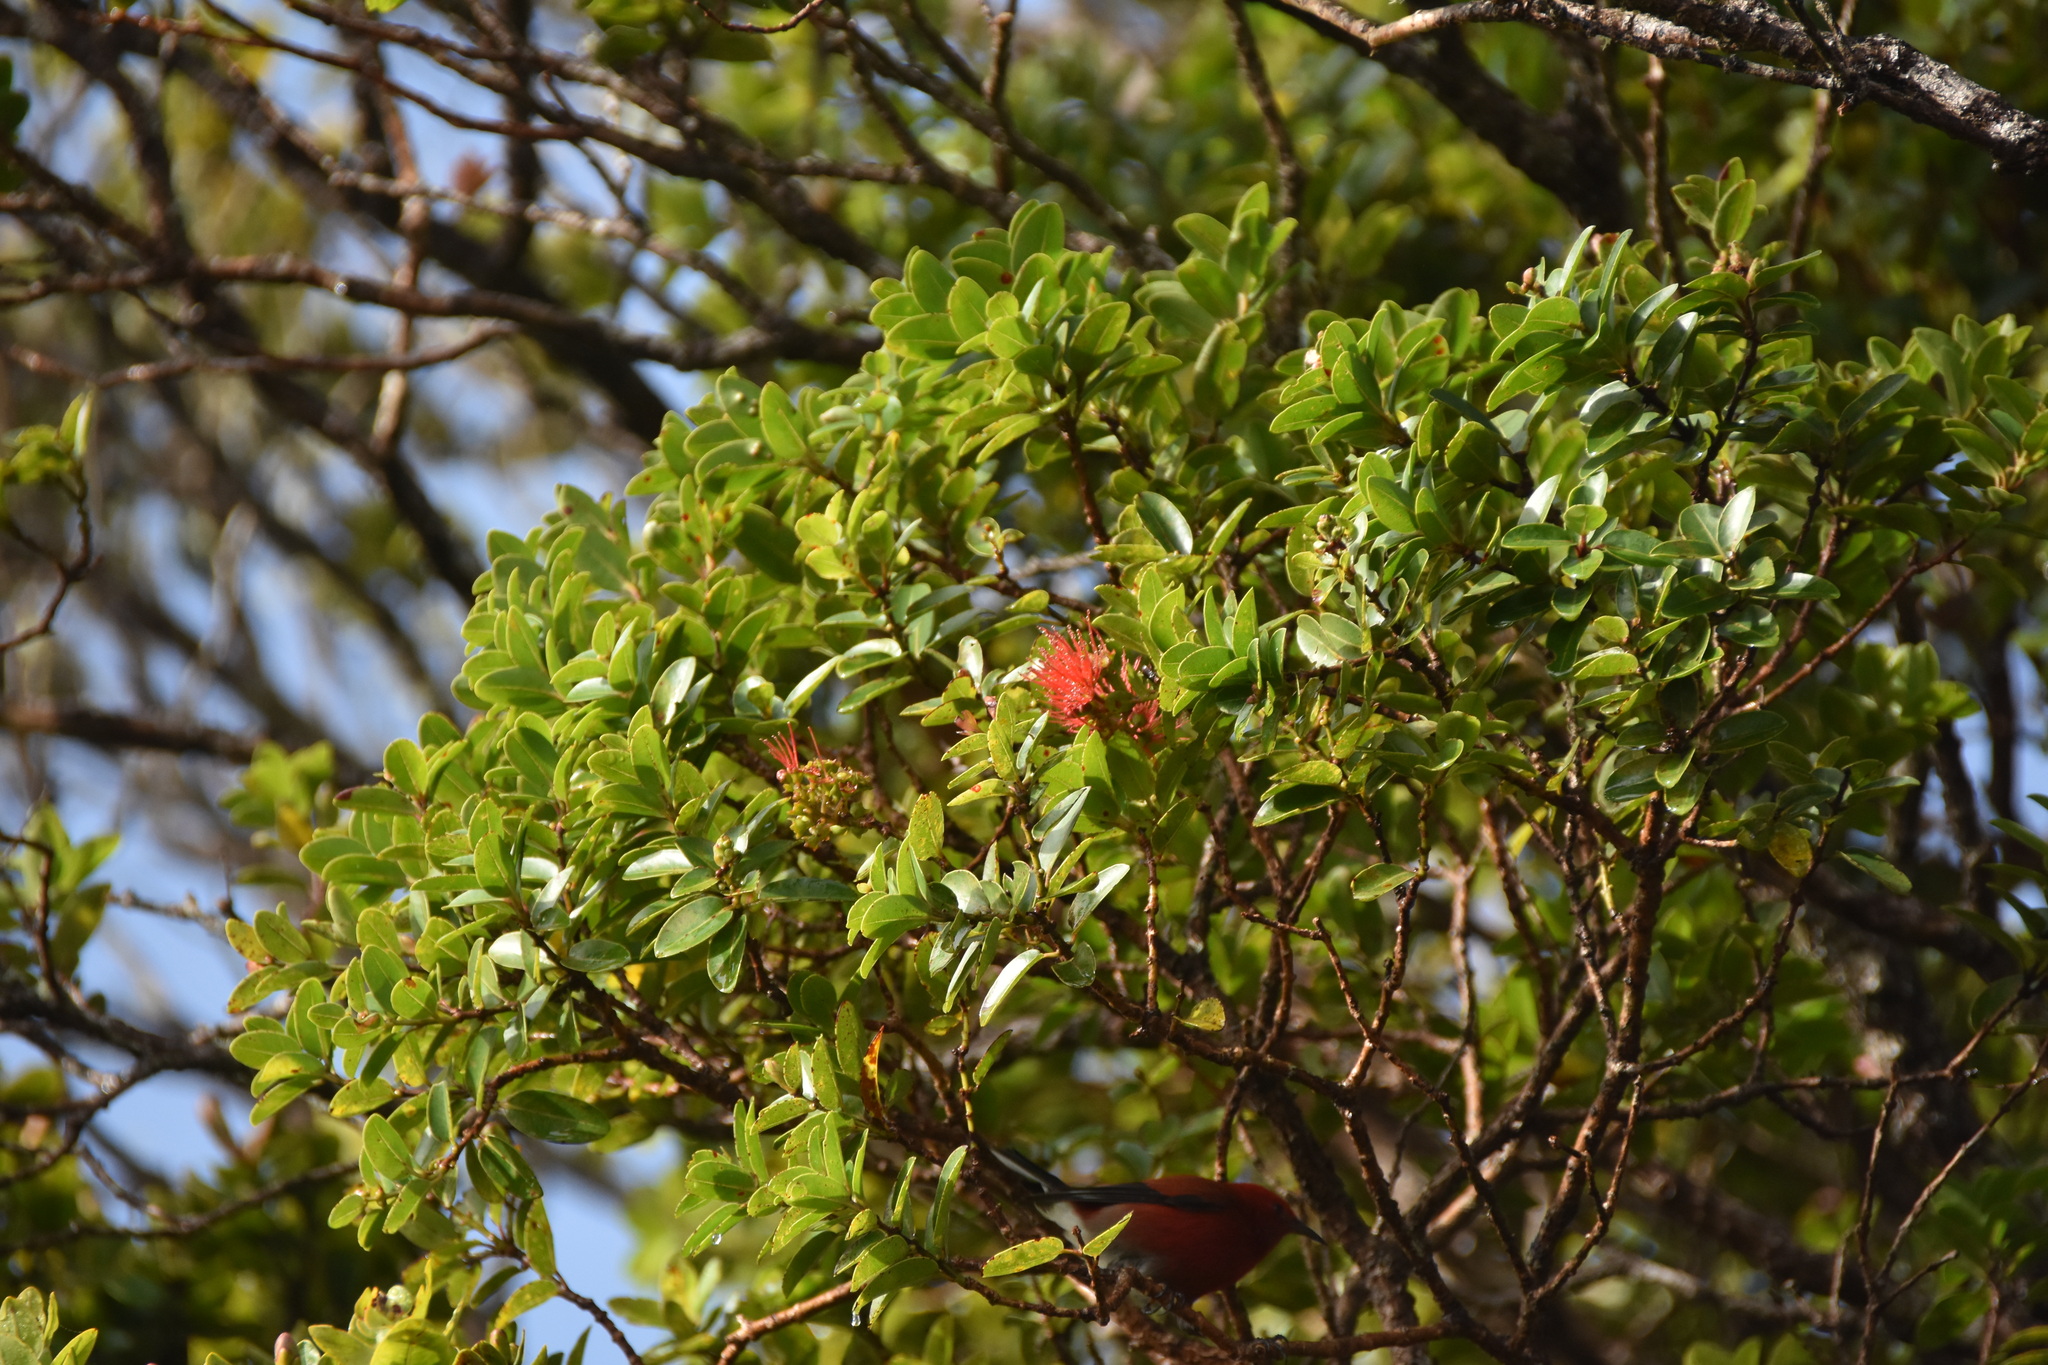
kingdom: Plantae
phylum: Tracheophyta
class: Magnoliopsida
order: Myrtales
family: Myrtaceae
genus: Metrosideros
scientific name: Metrosideros polymorpha
